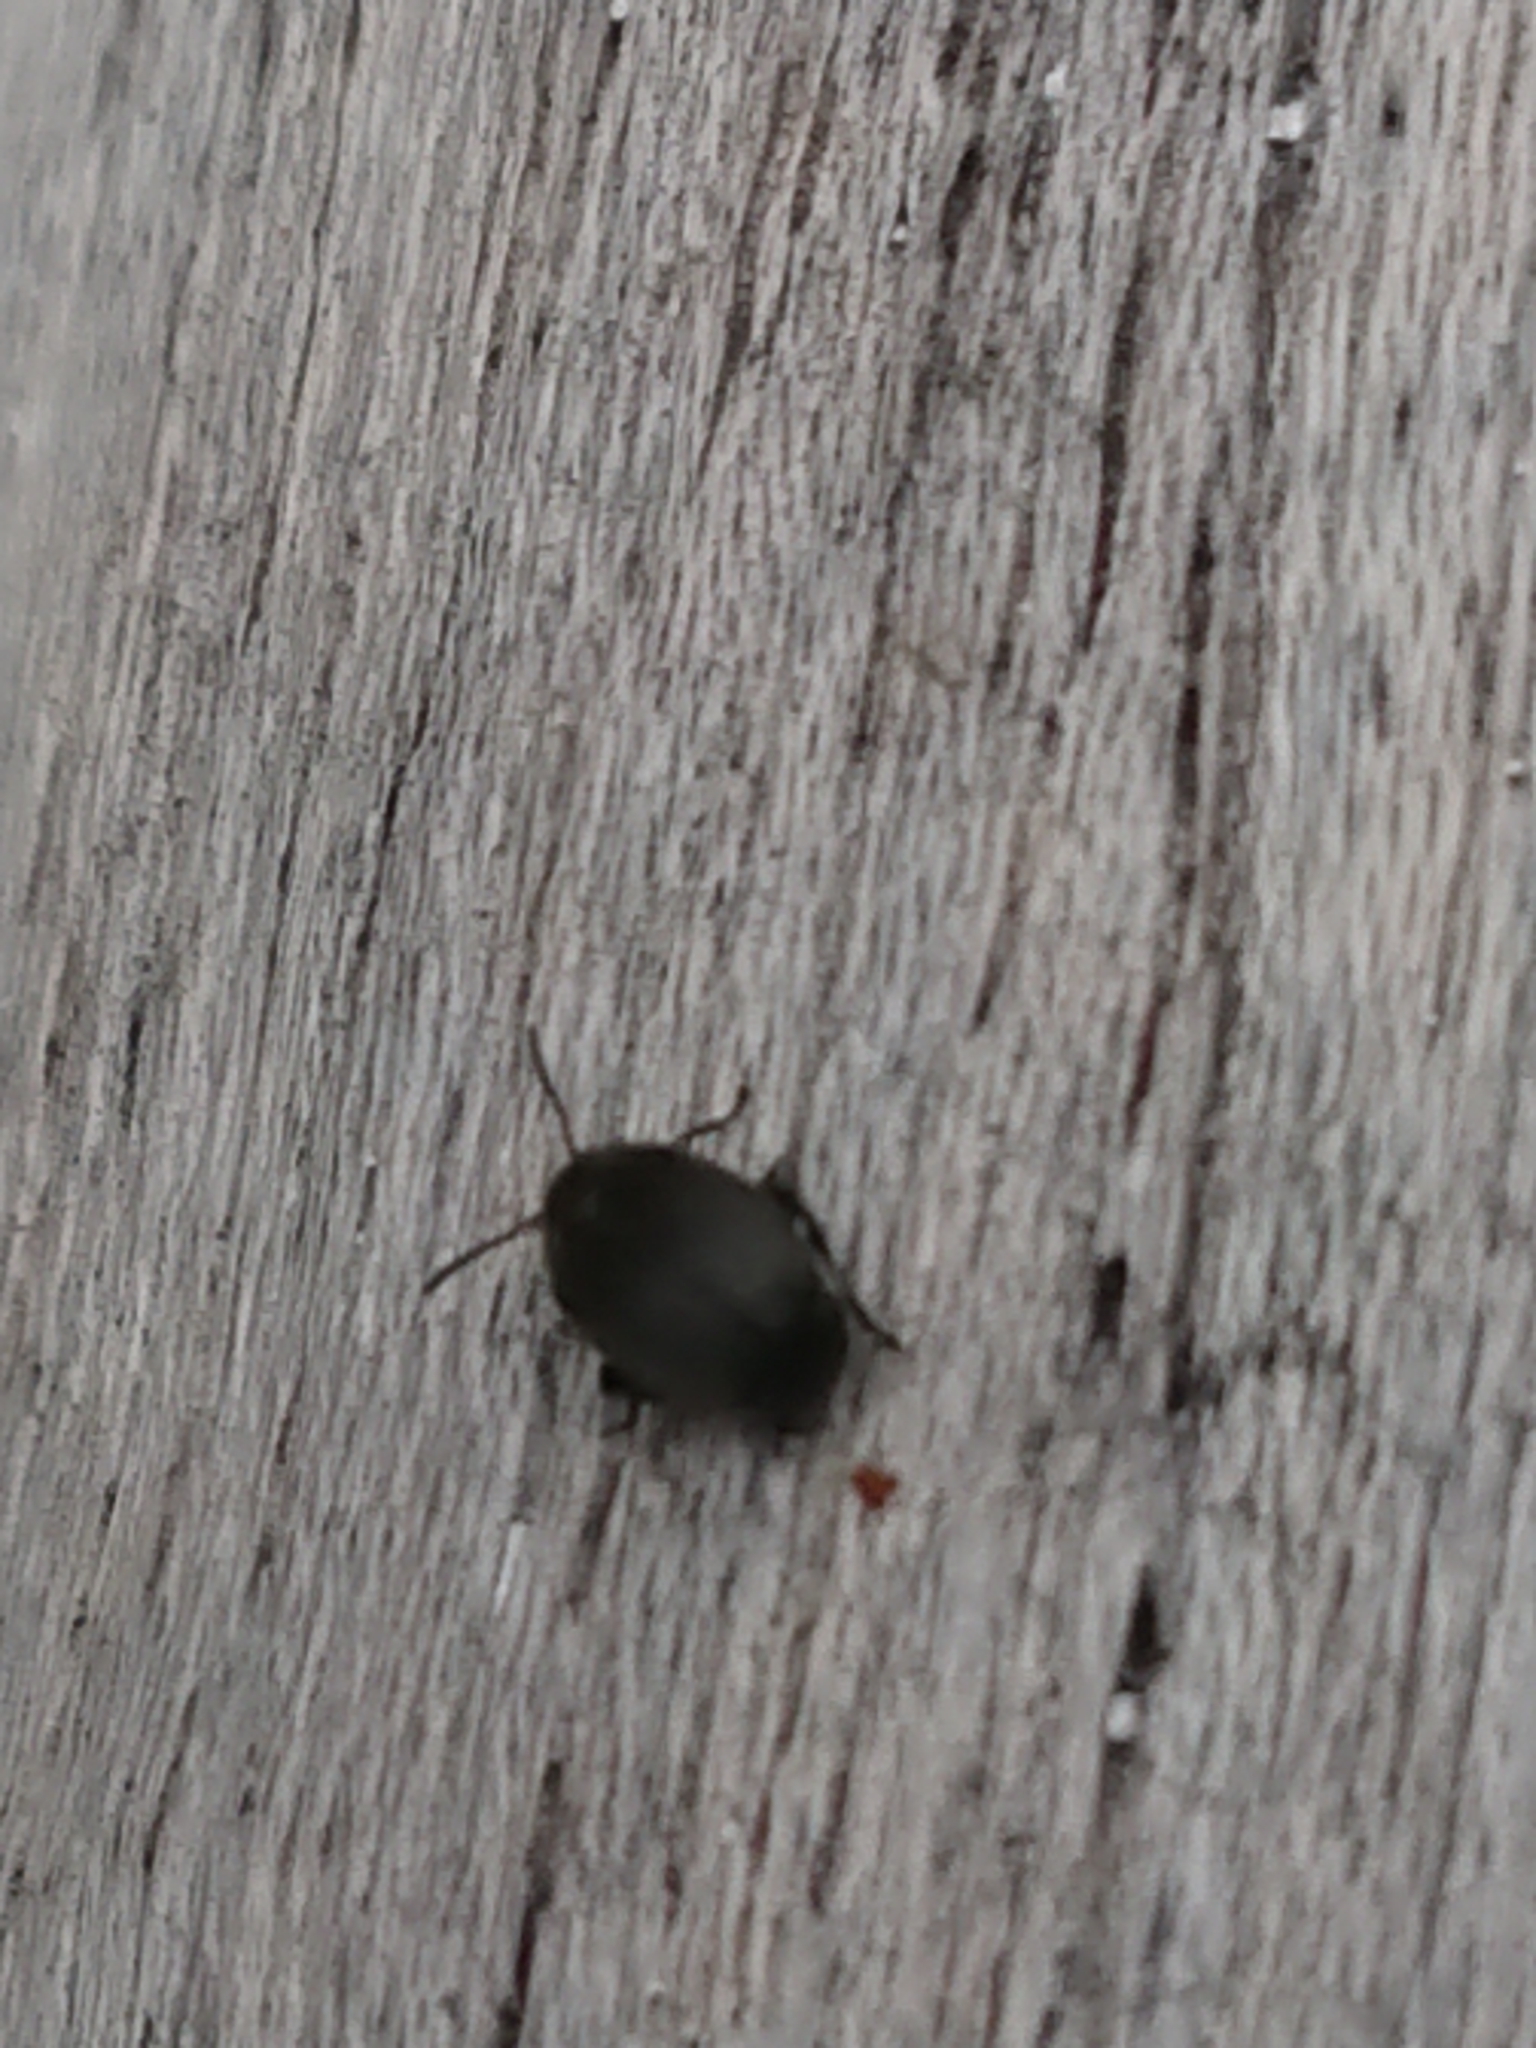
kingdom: Animalia
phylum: Arthropoda
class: Insecta
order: Coleoptera
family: Chrysomelidae
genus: Bruchidius
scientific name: Bruchidius villosus
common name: Scotch broom bruchid
